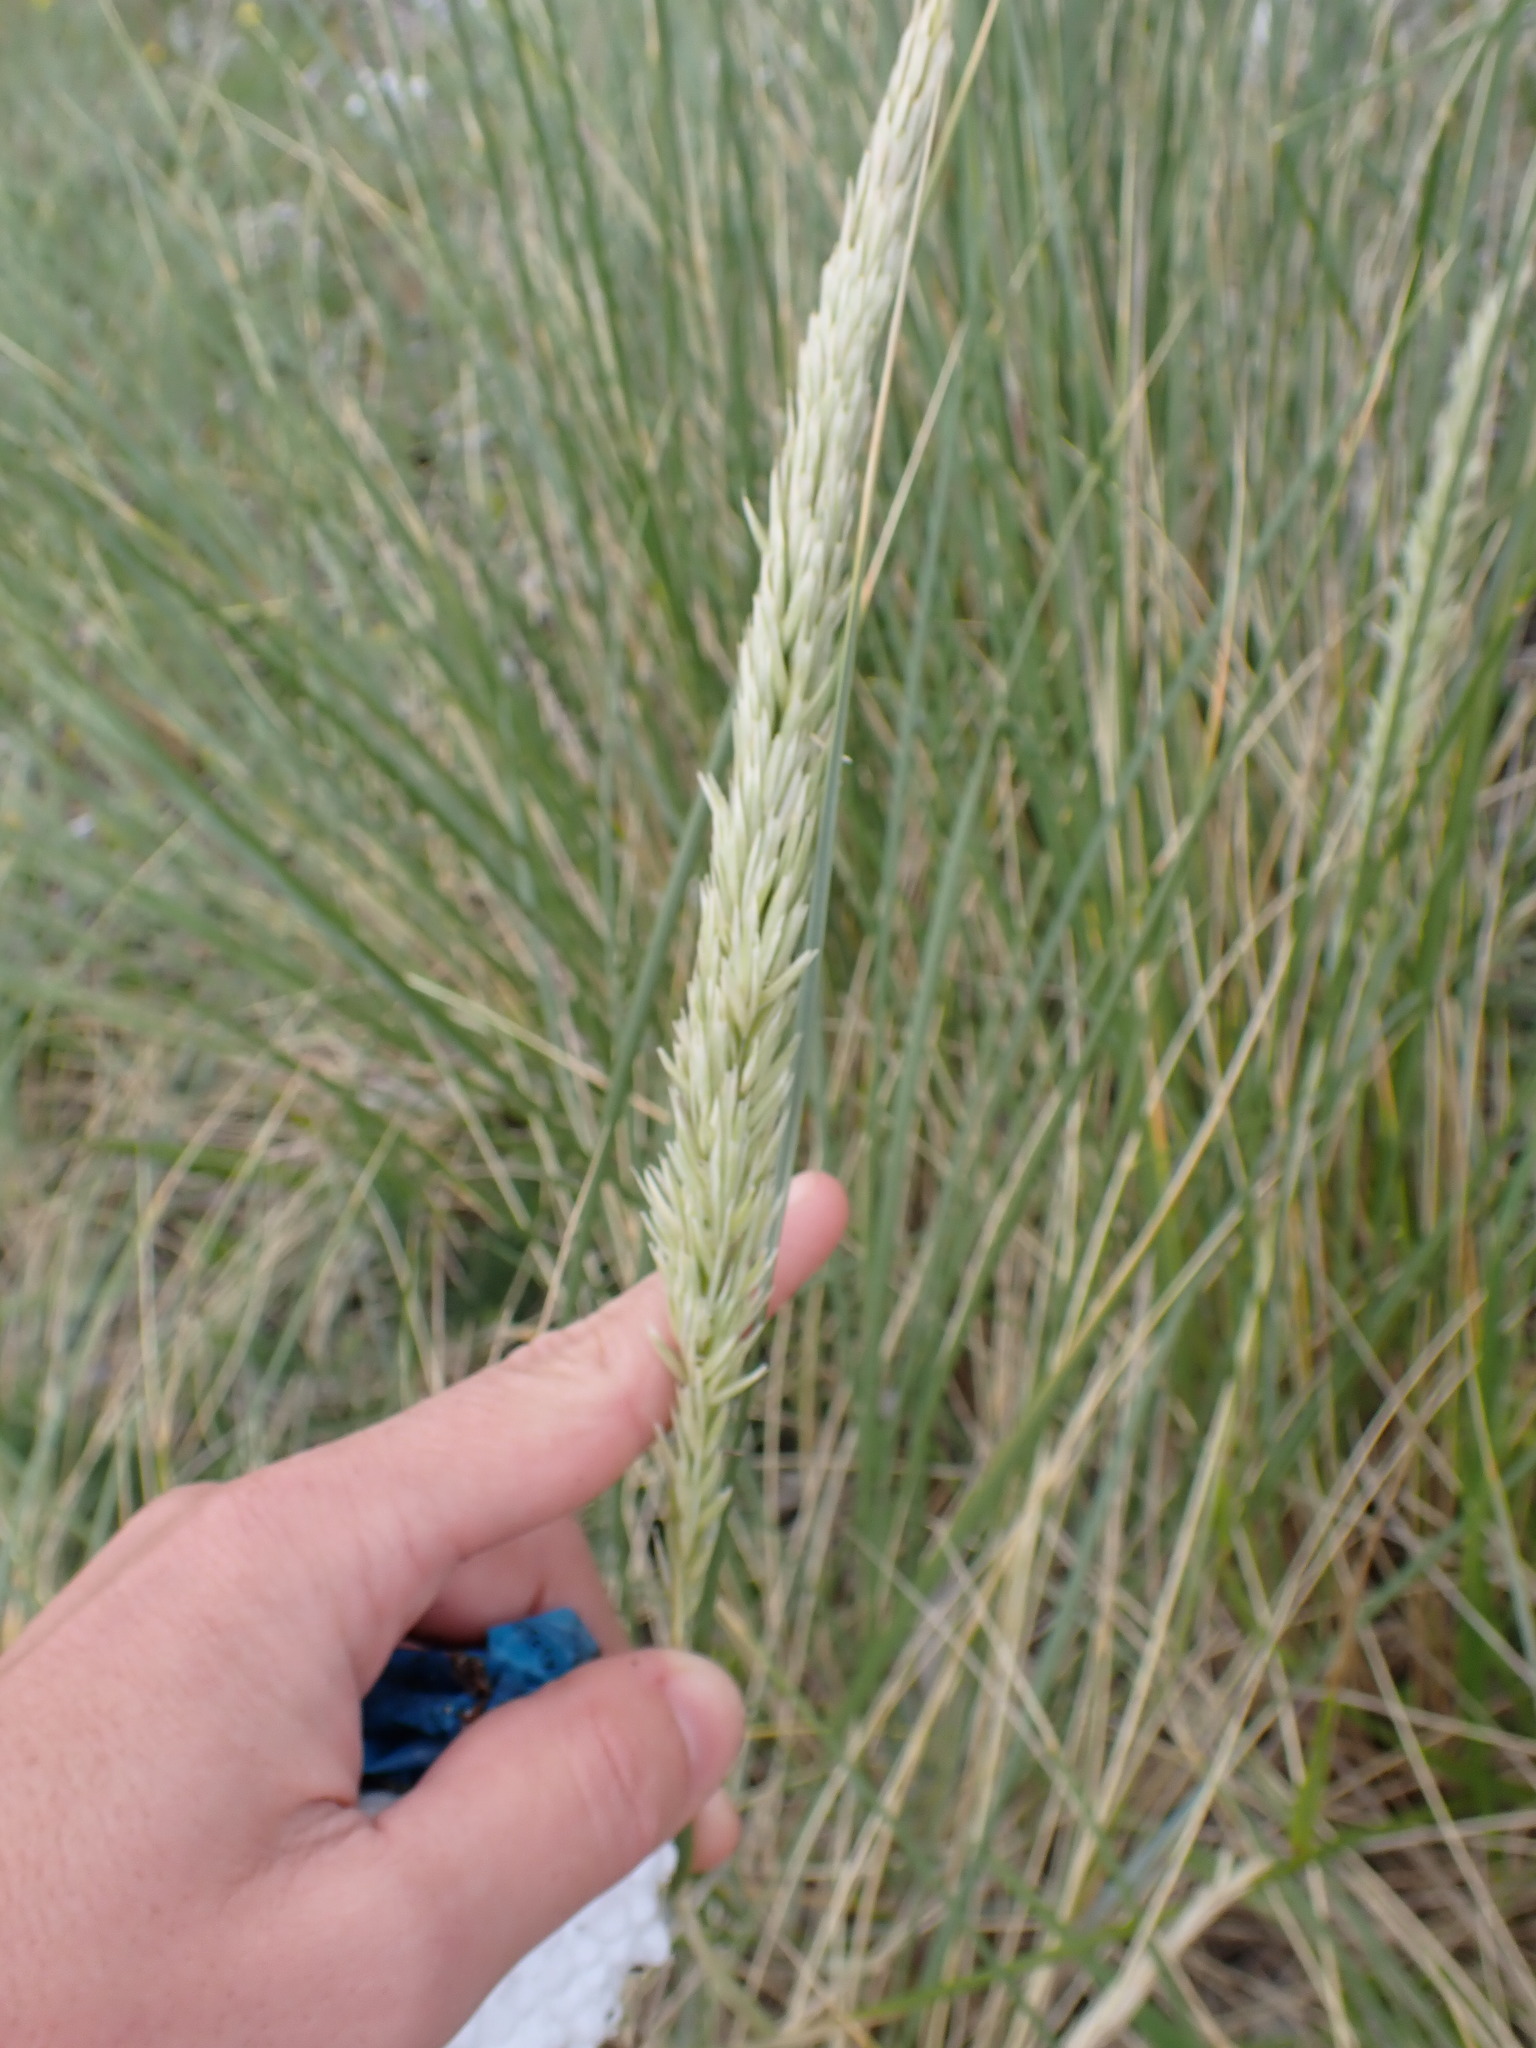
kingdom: Plantae
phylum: Tracheophyta
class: Liliopsida
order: Poales
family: Poaceae
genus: Calamagrostis
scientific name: Calamagrostis arenaria
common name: European beachgrass
